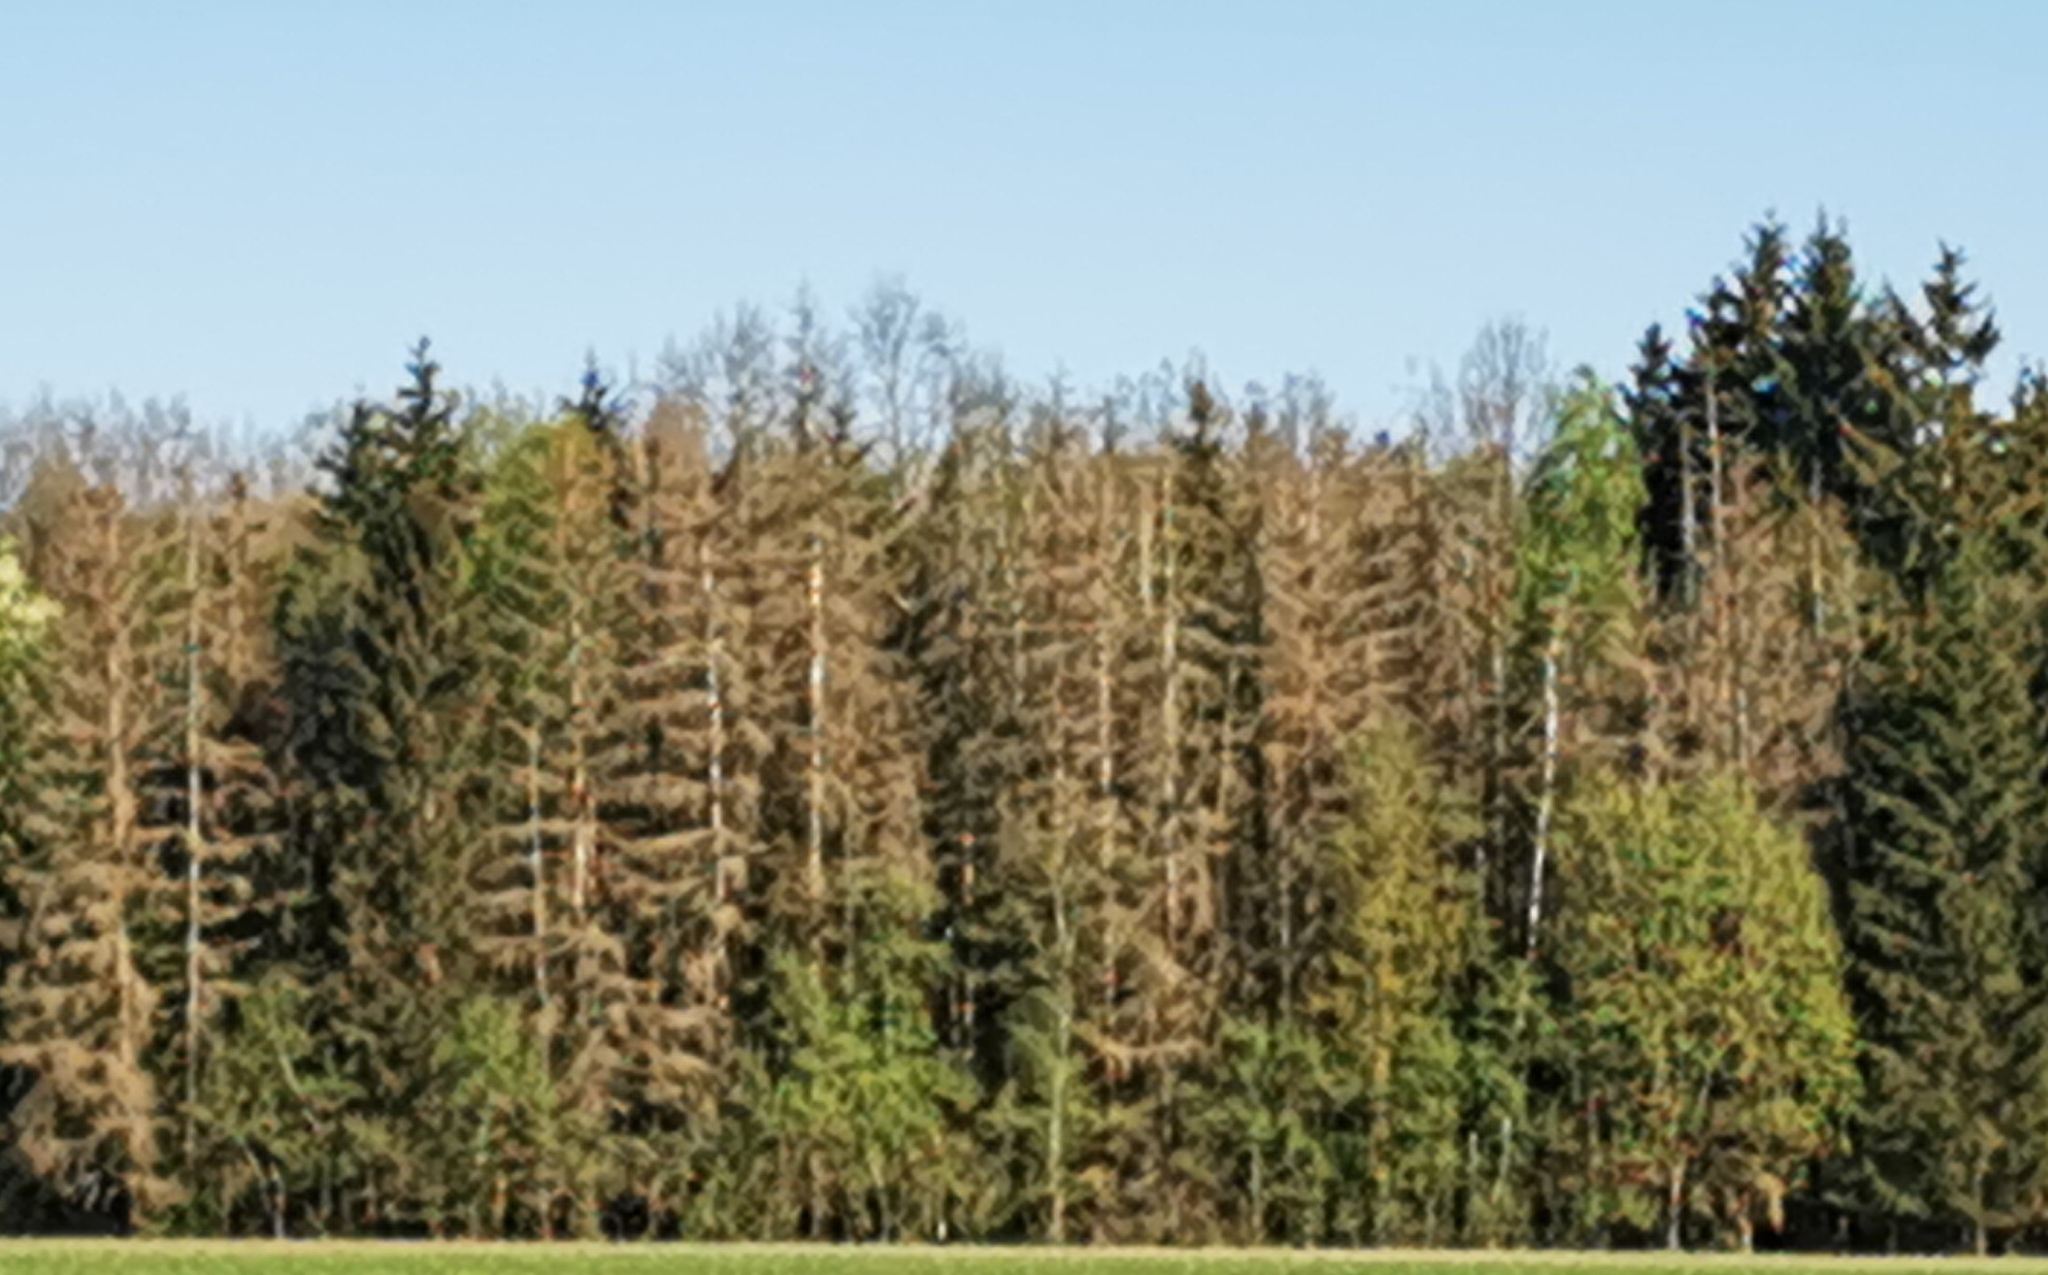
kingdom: Plantae
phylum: Tracheophyta
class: Pinopsida
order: Pinales
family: Pinaceae
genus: Picea
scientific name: Picea abies
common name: Norway spruce
